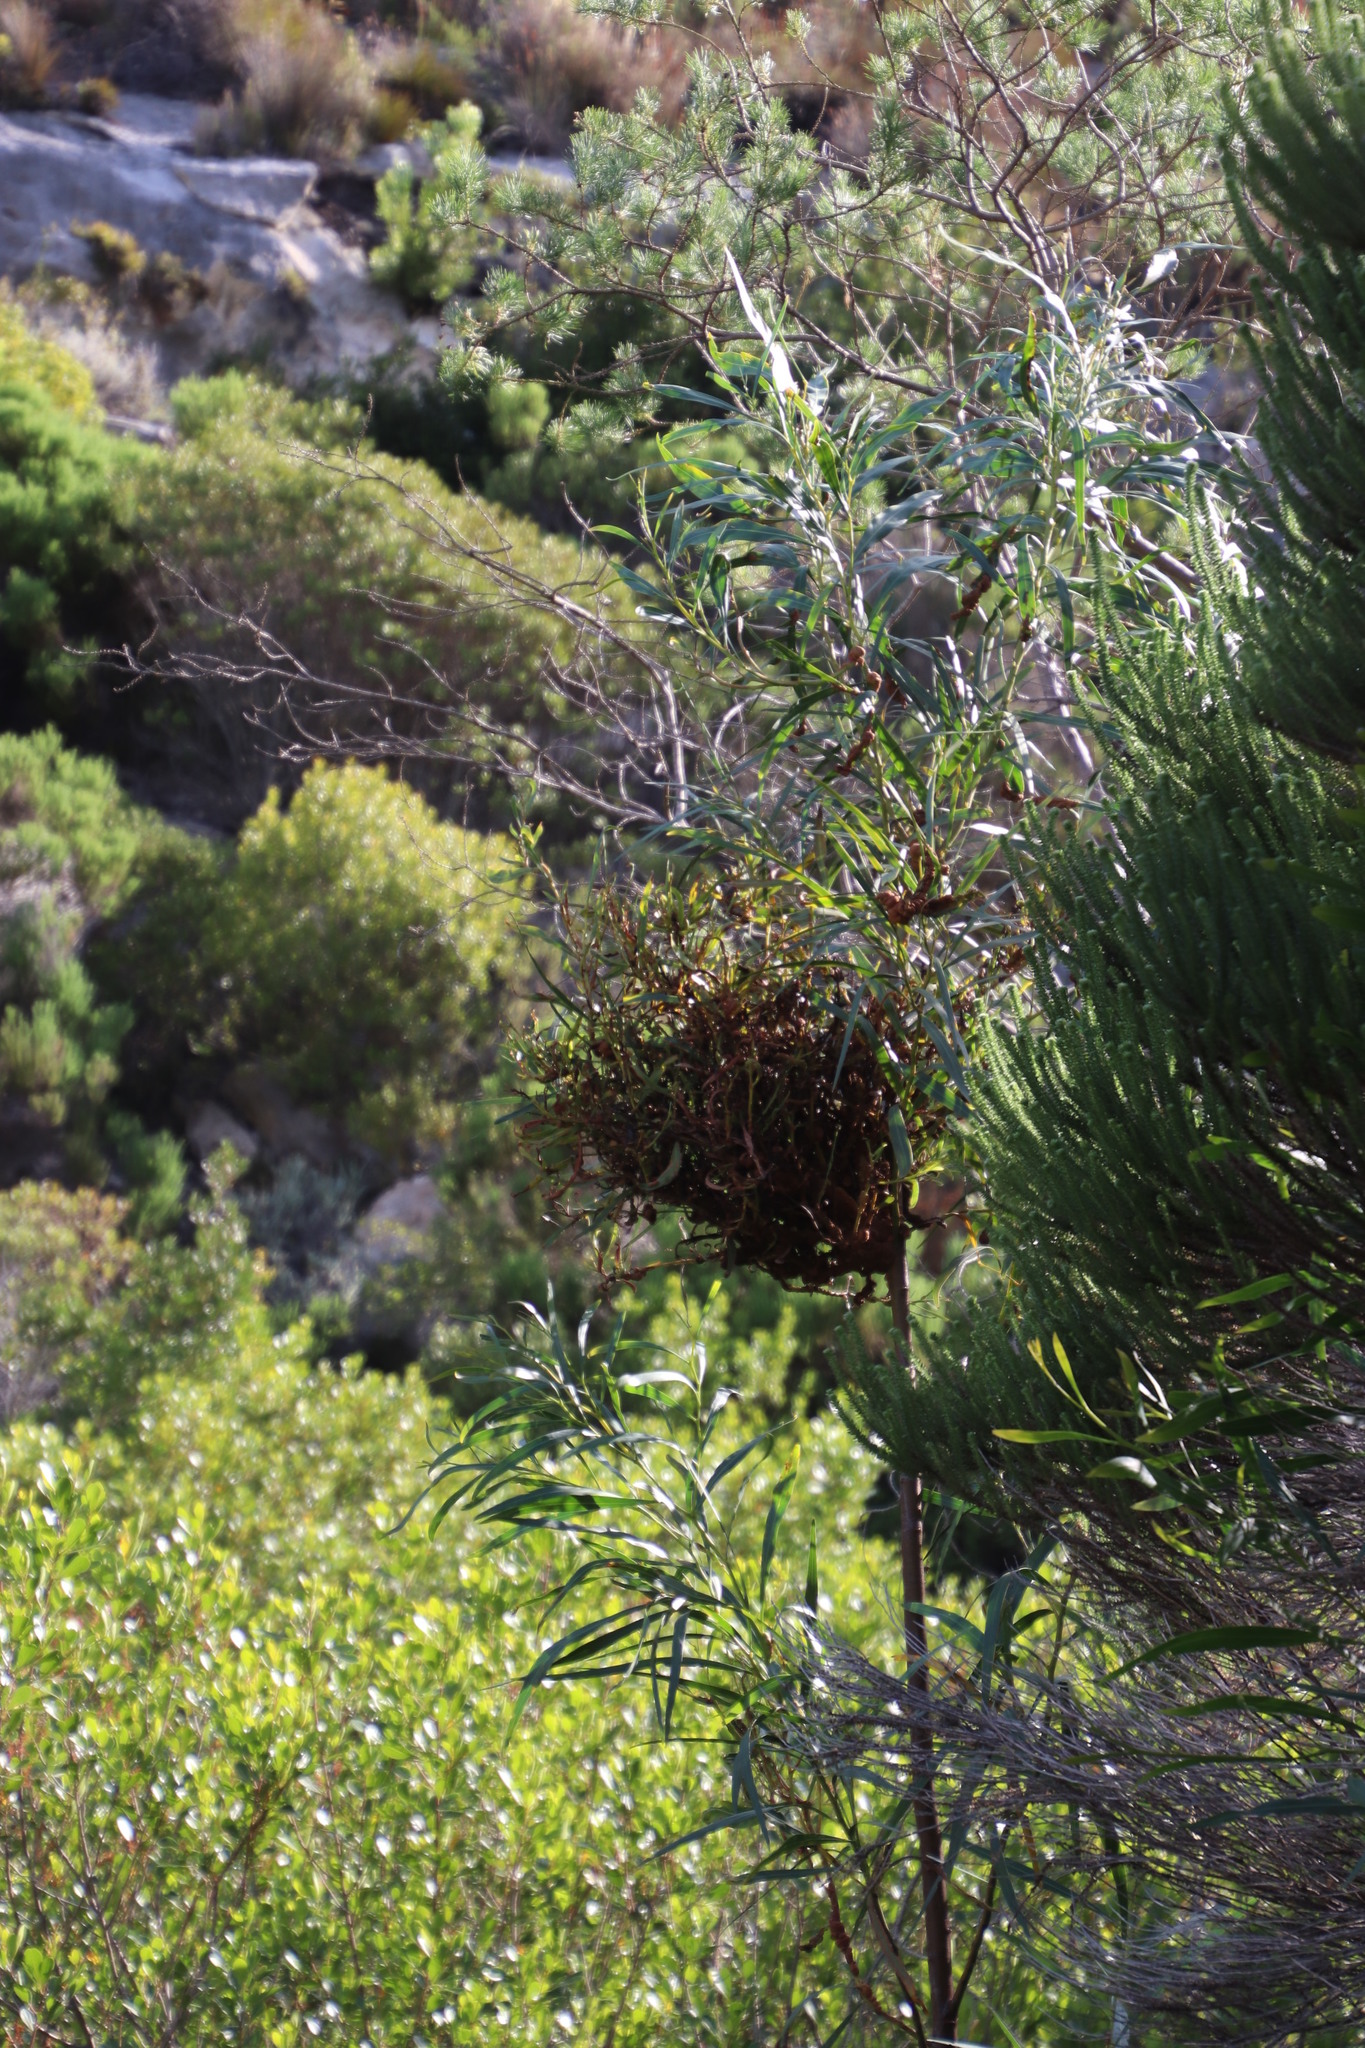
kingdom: Plantae
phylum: Tracheophyta
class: Magnoliopsida
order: Fabales
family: Fabaceae
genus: Acacia
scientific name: Acacia saligna
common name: Orange wattle
